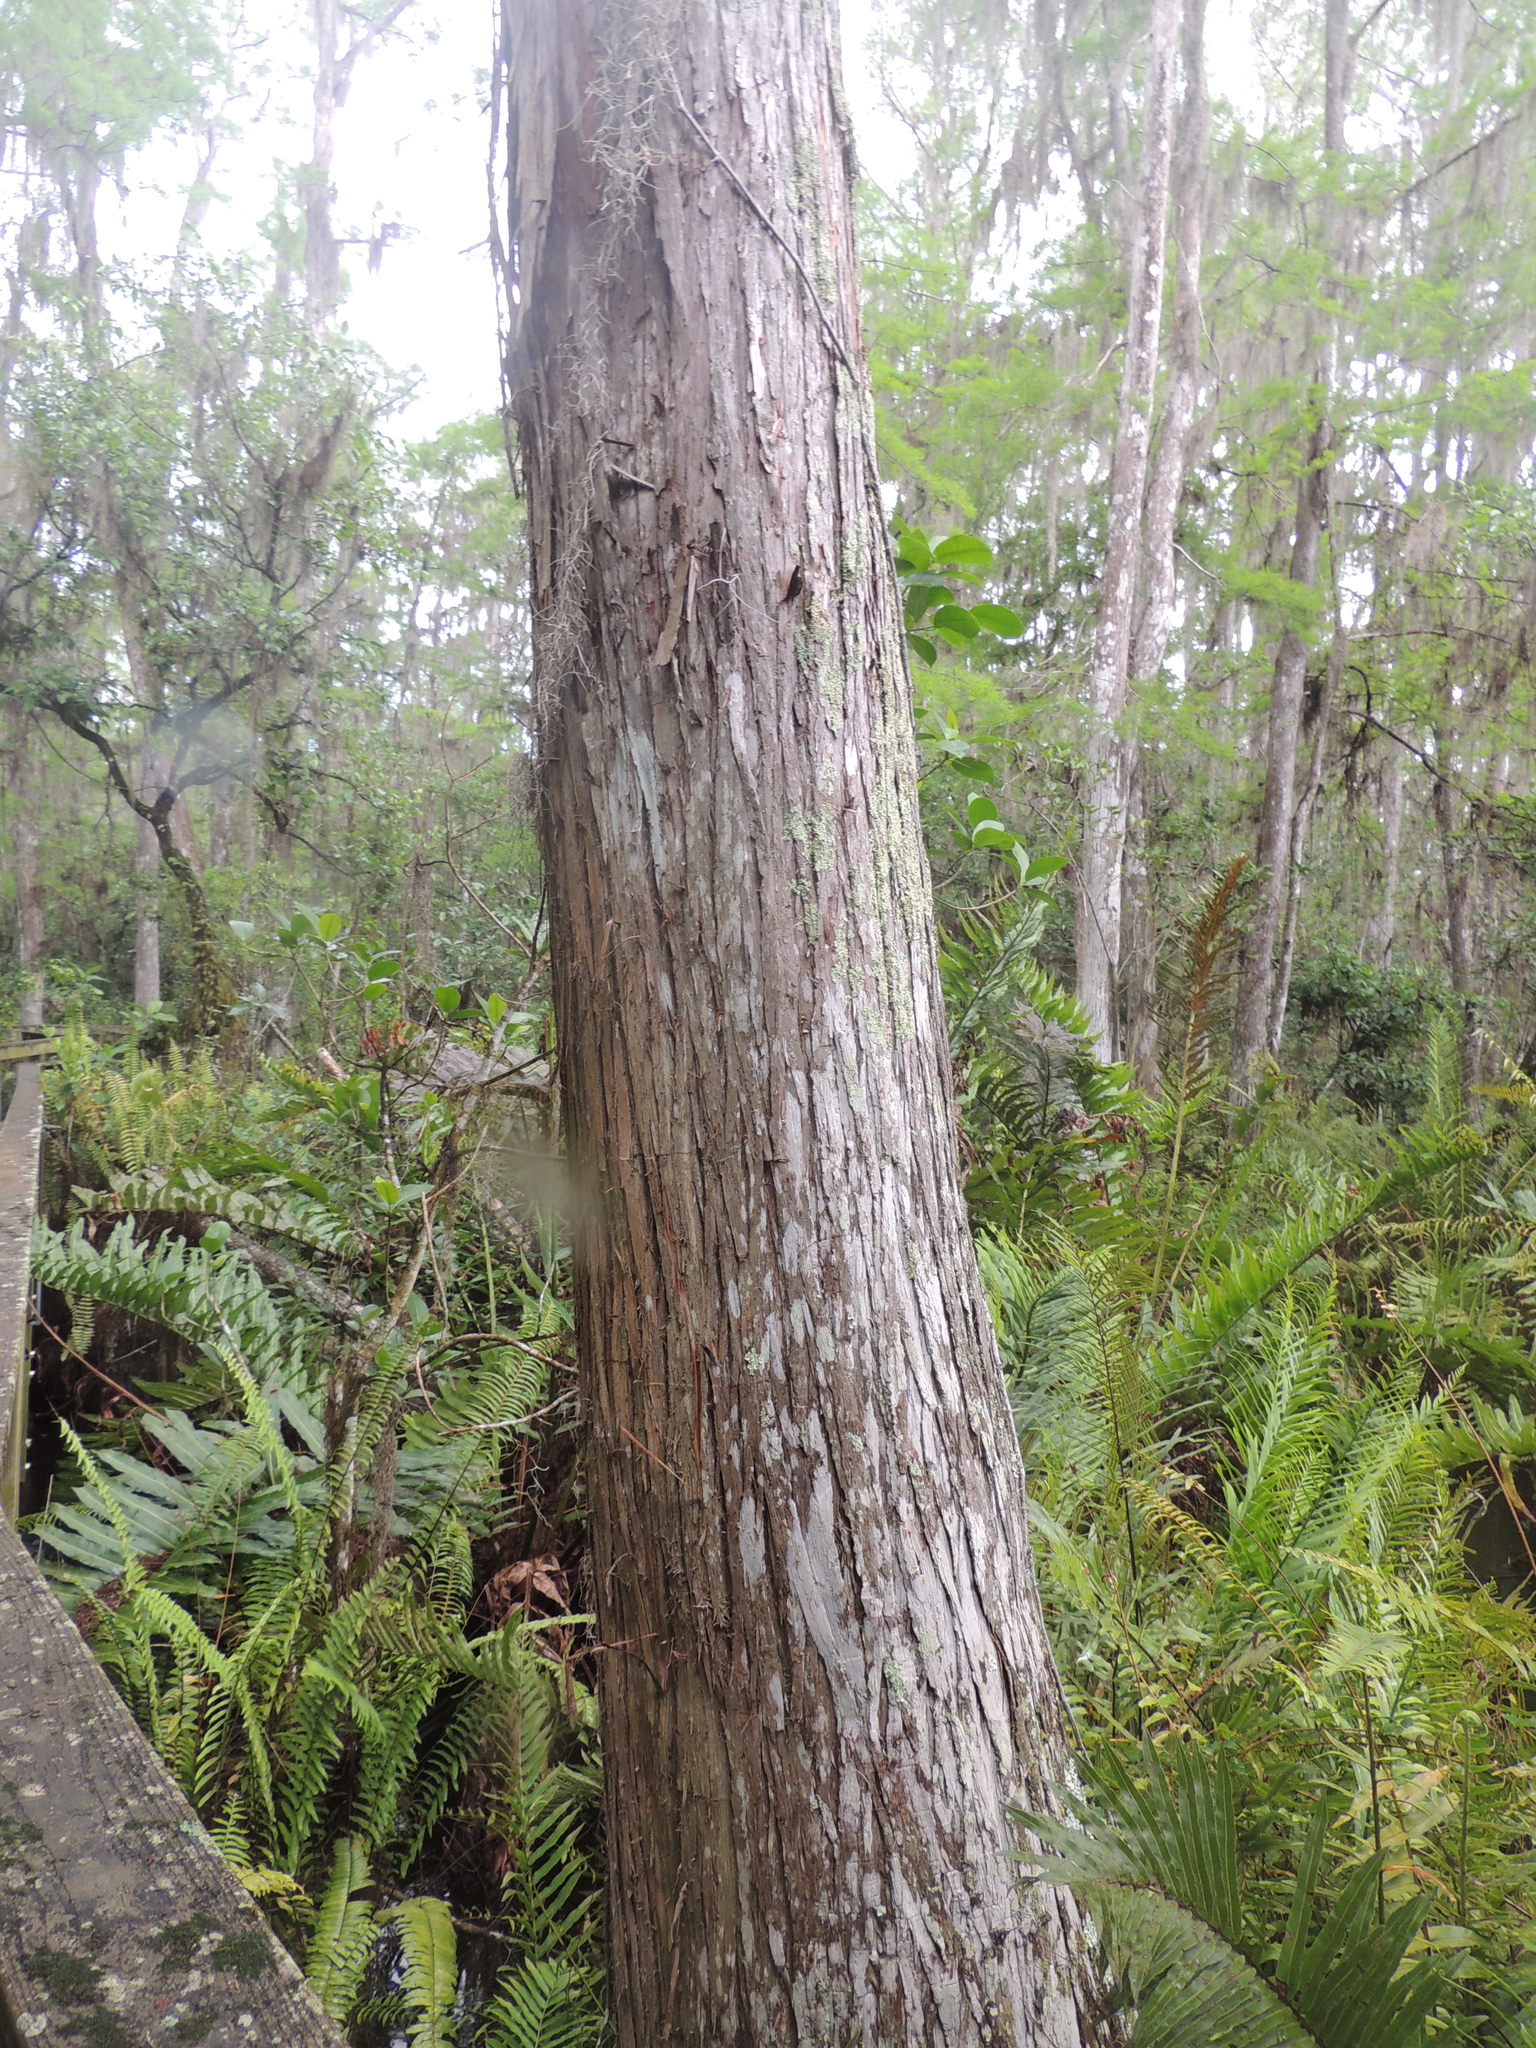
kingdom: Plantae
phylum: Tracheophyta
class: Pinopsida
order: Pinales
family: Cupressaceae
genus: Taxodium
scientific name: Taxodium distichum
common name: Bald cypress
